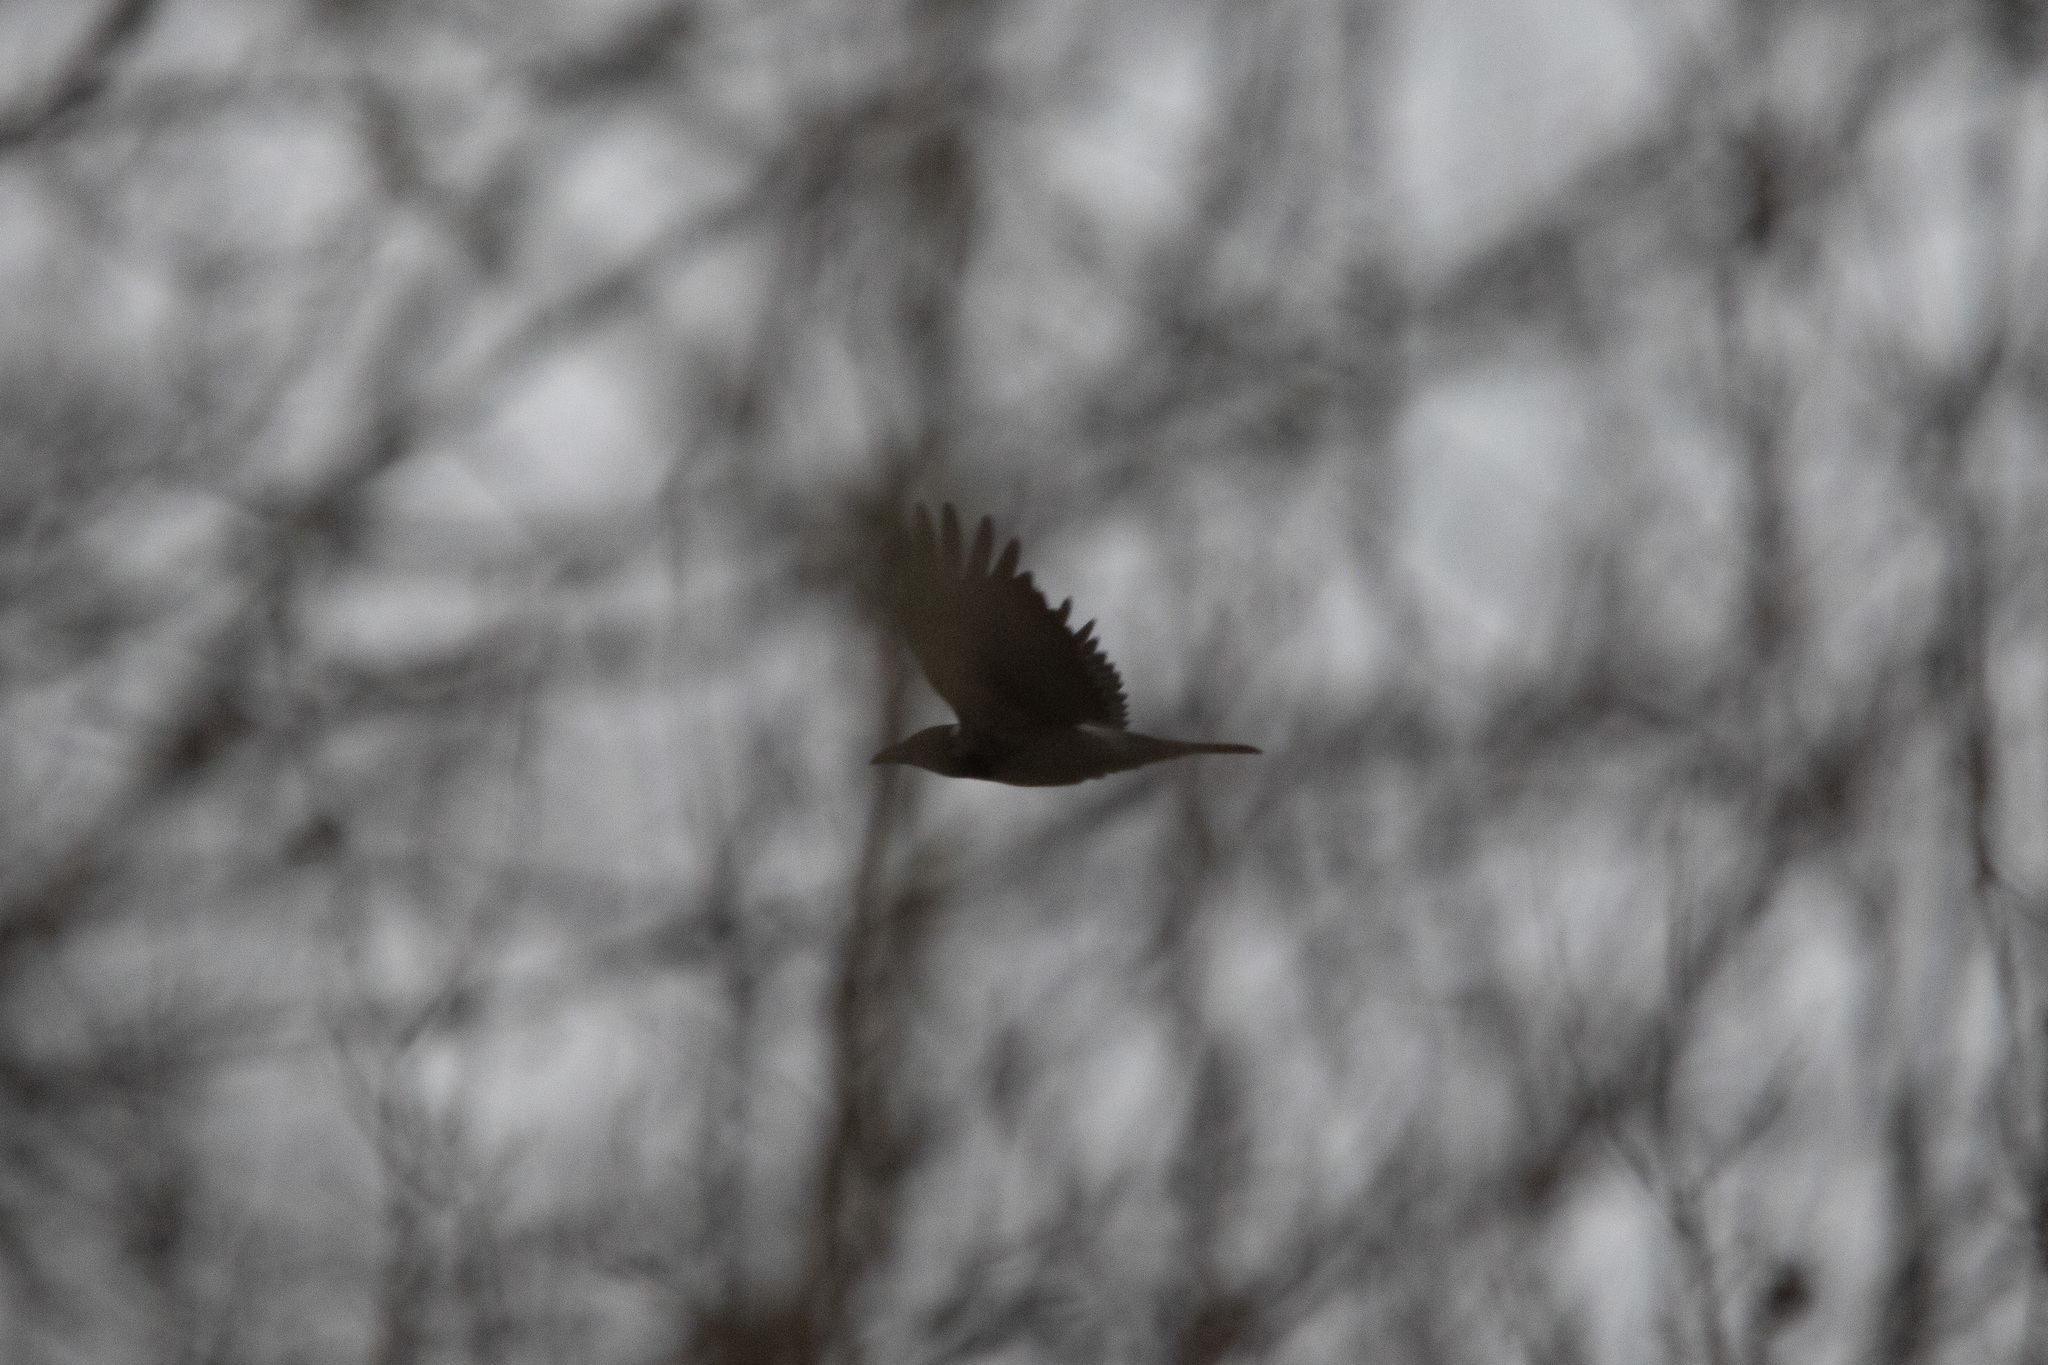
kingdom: Animalia
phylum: Chordata
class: Aves
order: Passeriformes
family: Corvidae
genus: Corvus
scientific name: Corvus cornix
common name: Hooded crow
